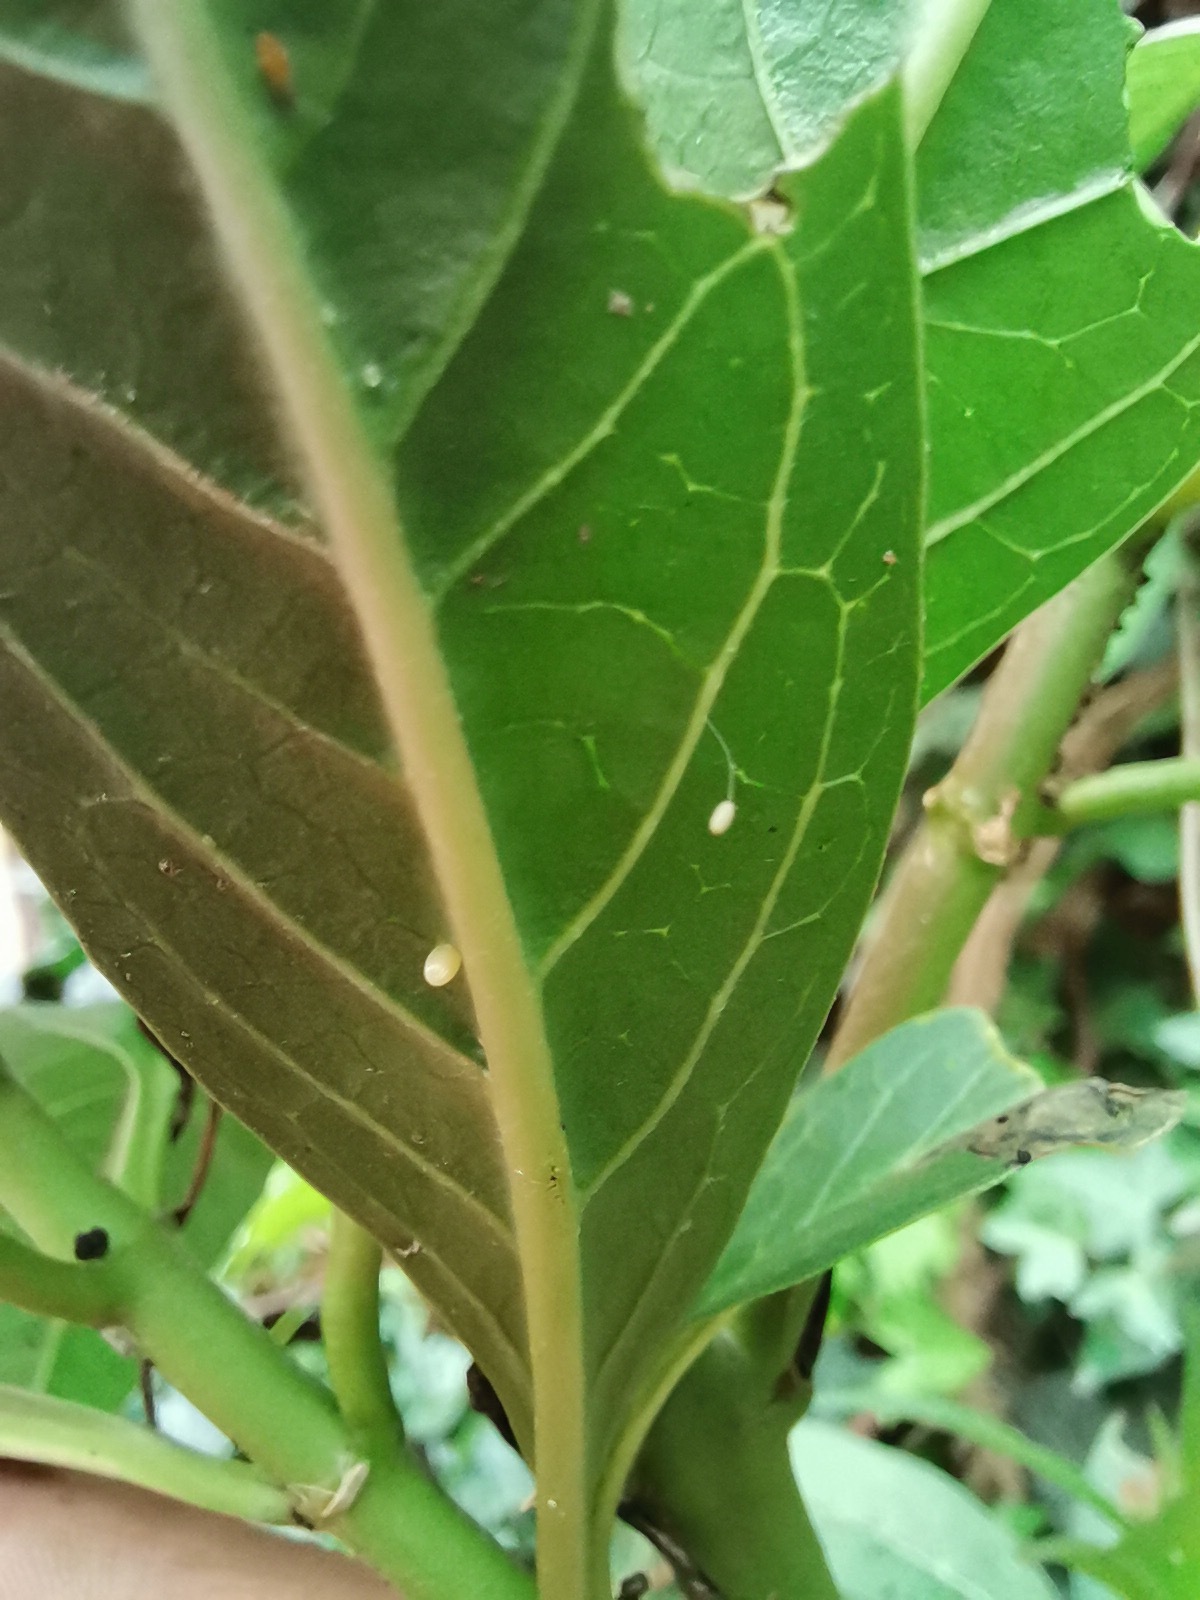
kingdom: Animalia
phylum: Arthropoda
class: Insecta
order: Lepidoptera
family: Nymphalidae
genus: Danaus
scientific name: Danaus plexippus
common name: Monarch
